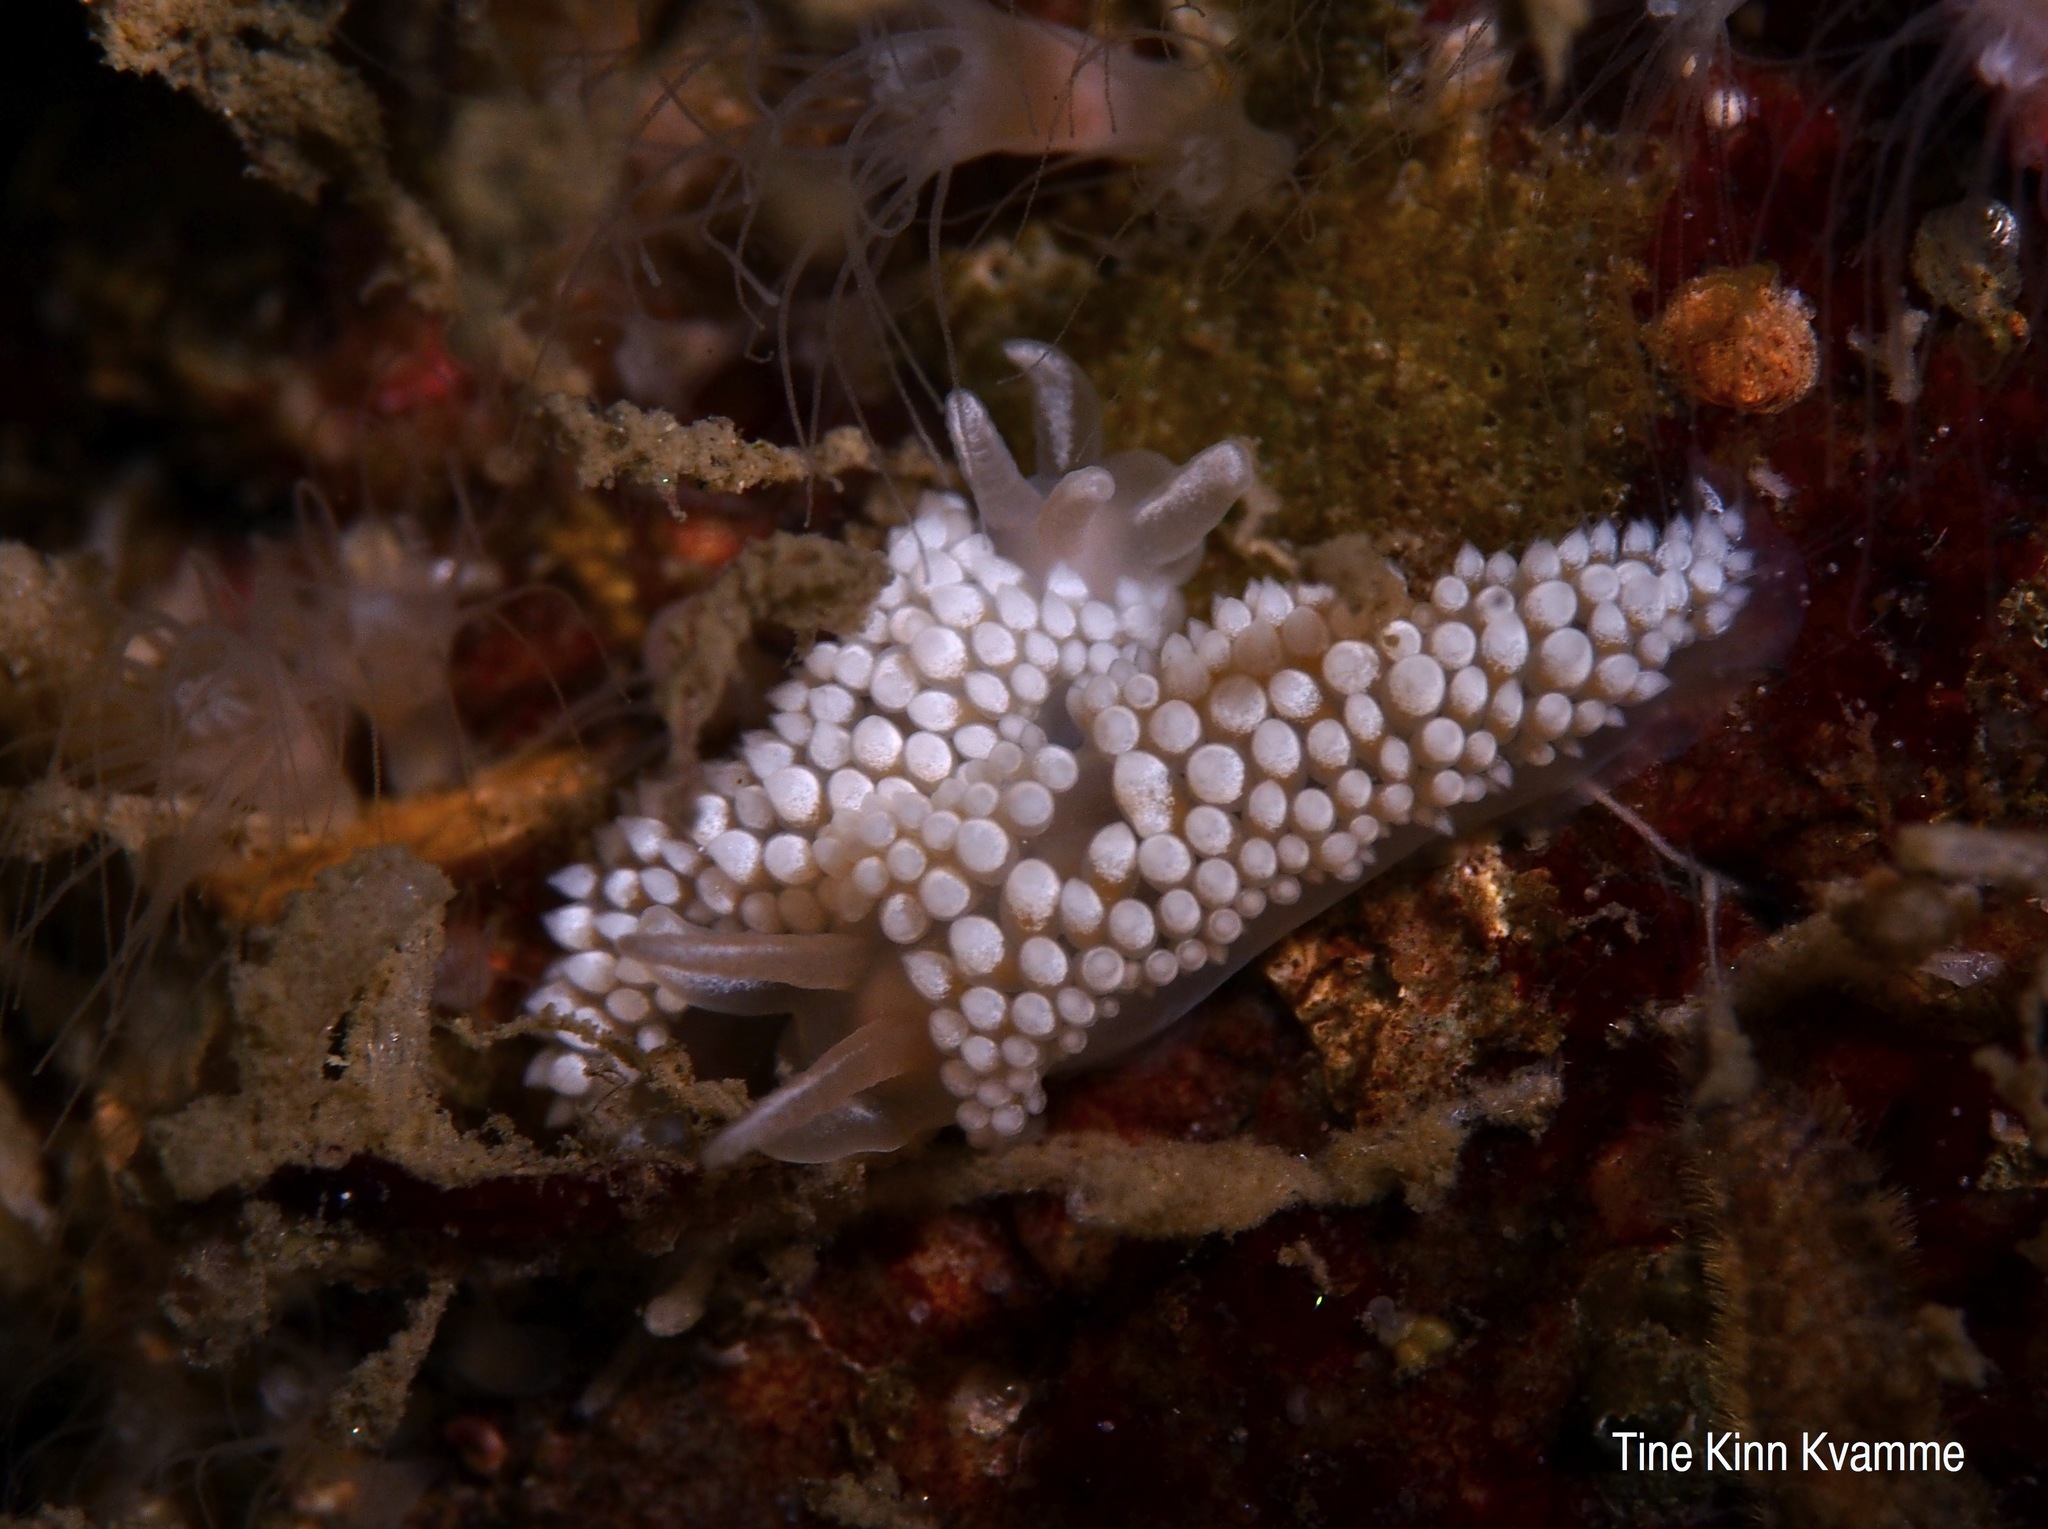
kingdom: Animalia
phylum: Mollusca
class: Gastropoda
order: Nudibranchia
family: Coryphellidae
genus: Coryphella
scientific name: Coryphella verrucosa
